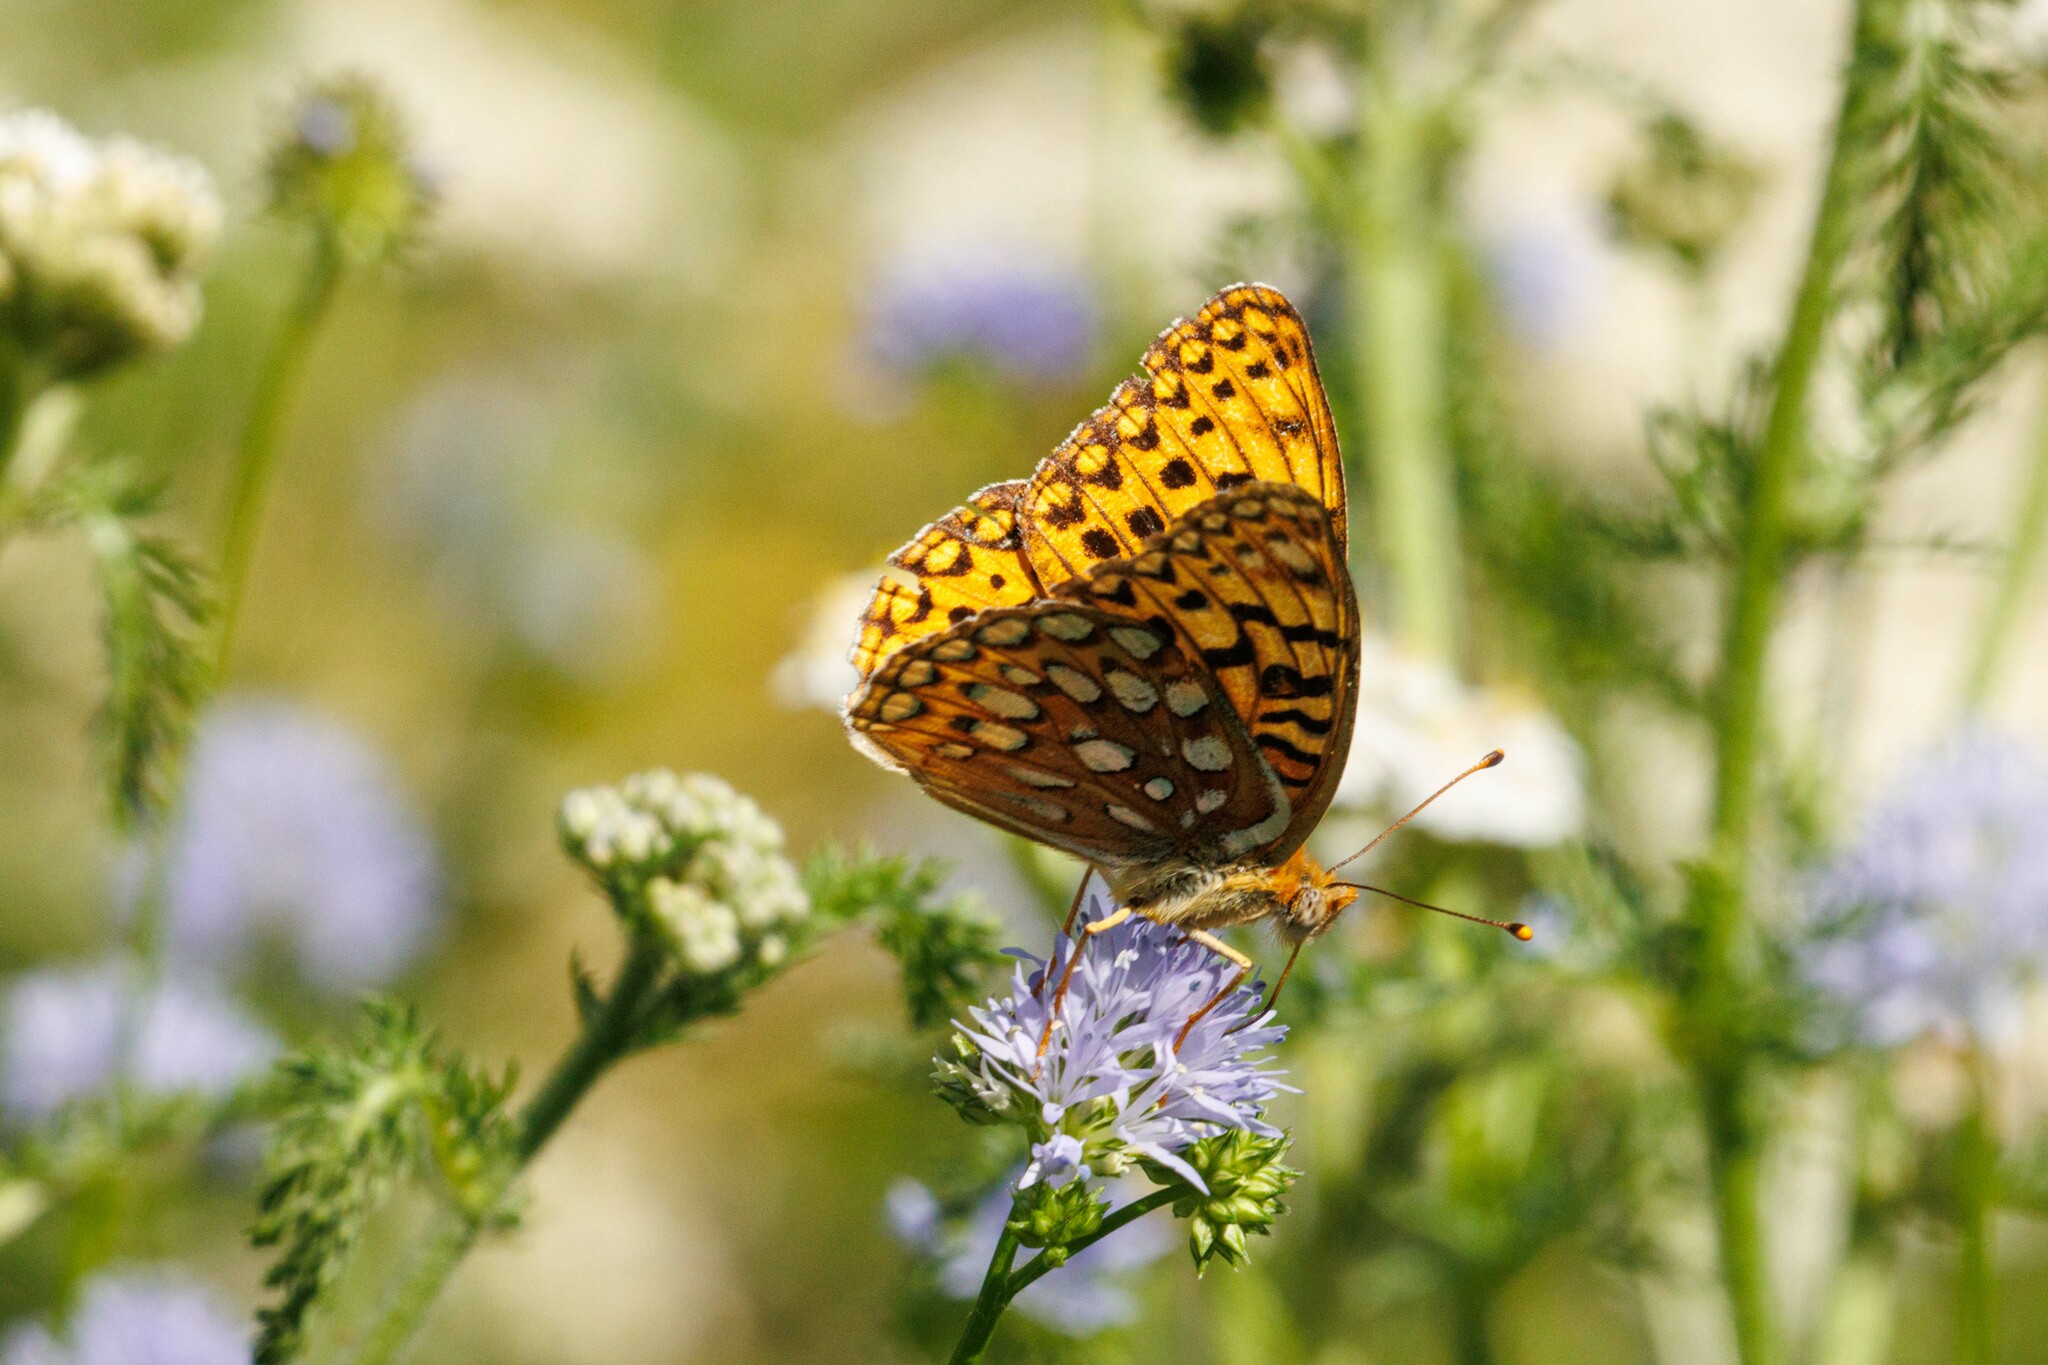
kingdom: Animalia
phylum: Arthropoda
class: Insecta
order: Lepidoptera
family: Nymphalidae
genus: Argynnis
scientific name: Argynnis coronis
